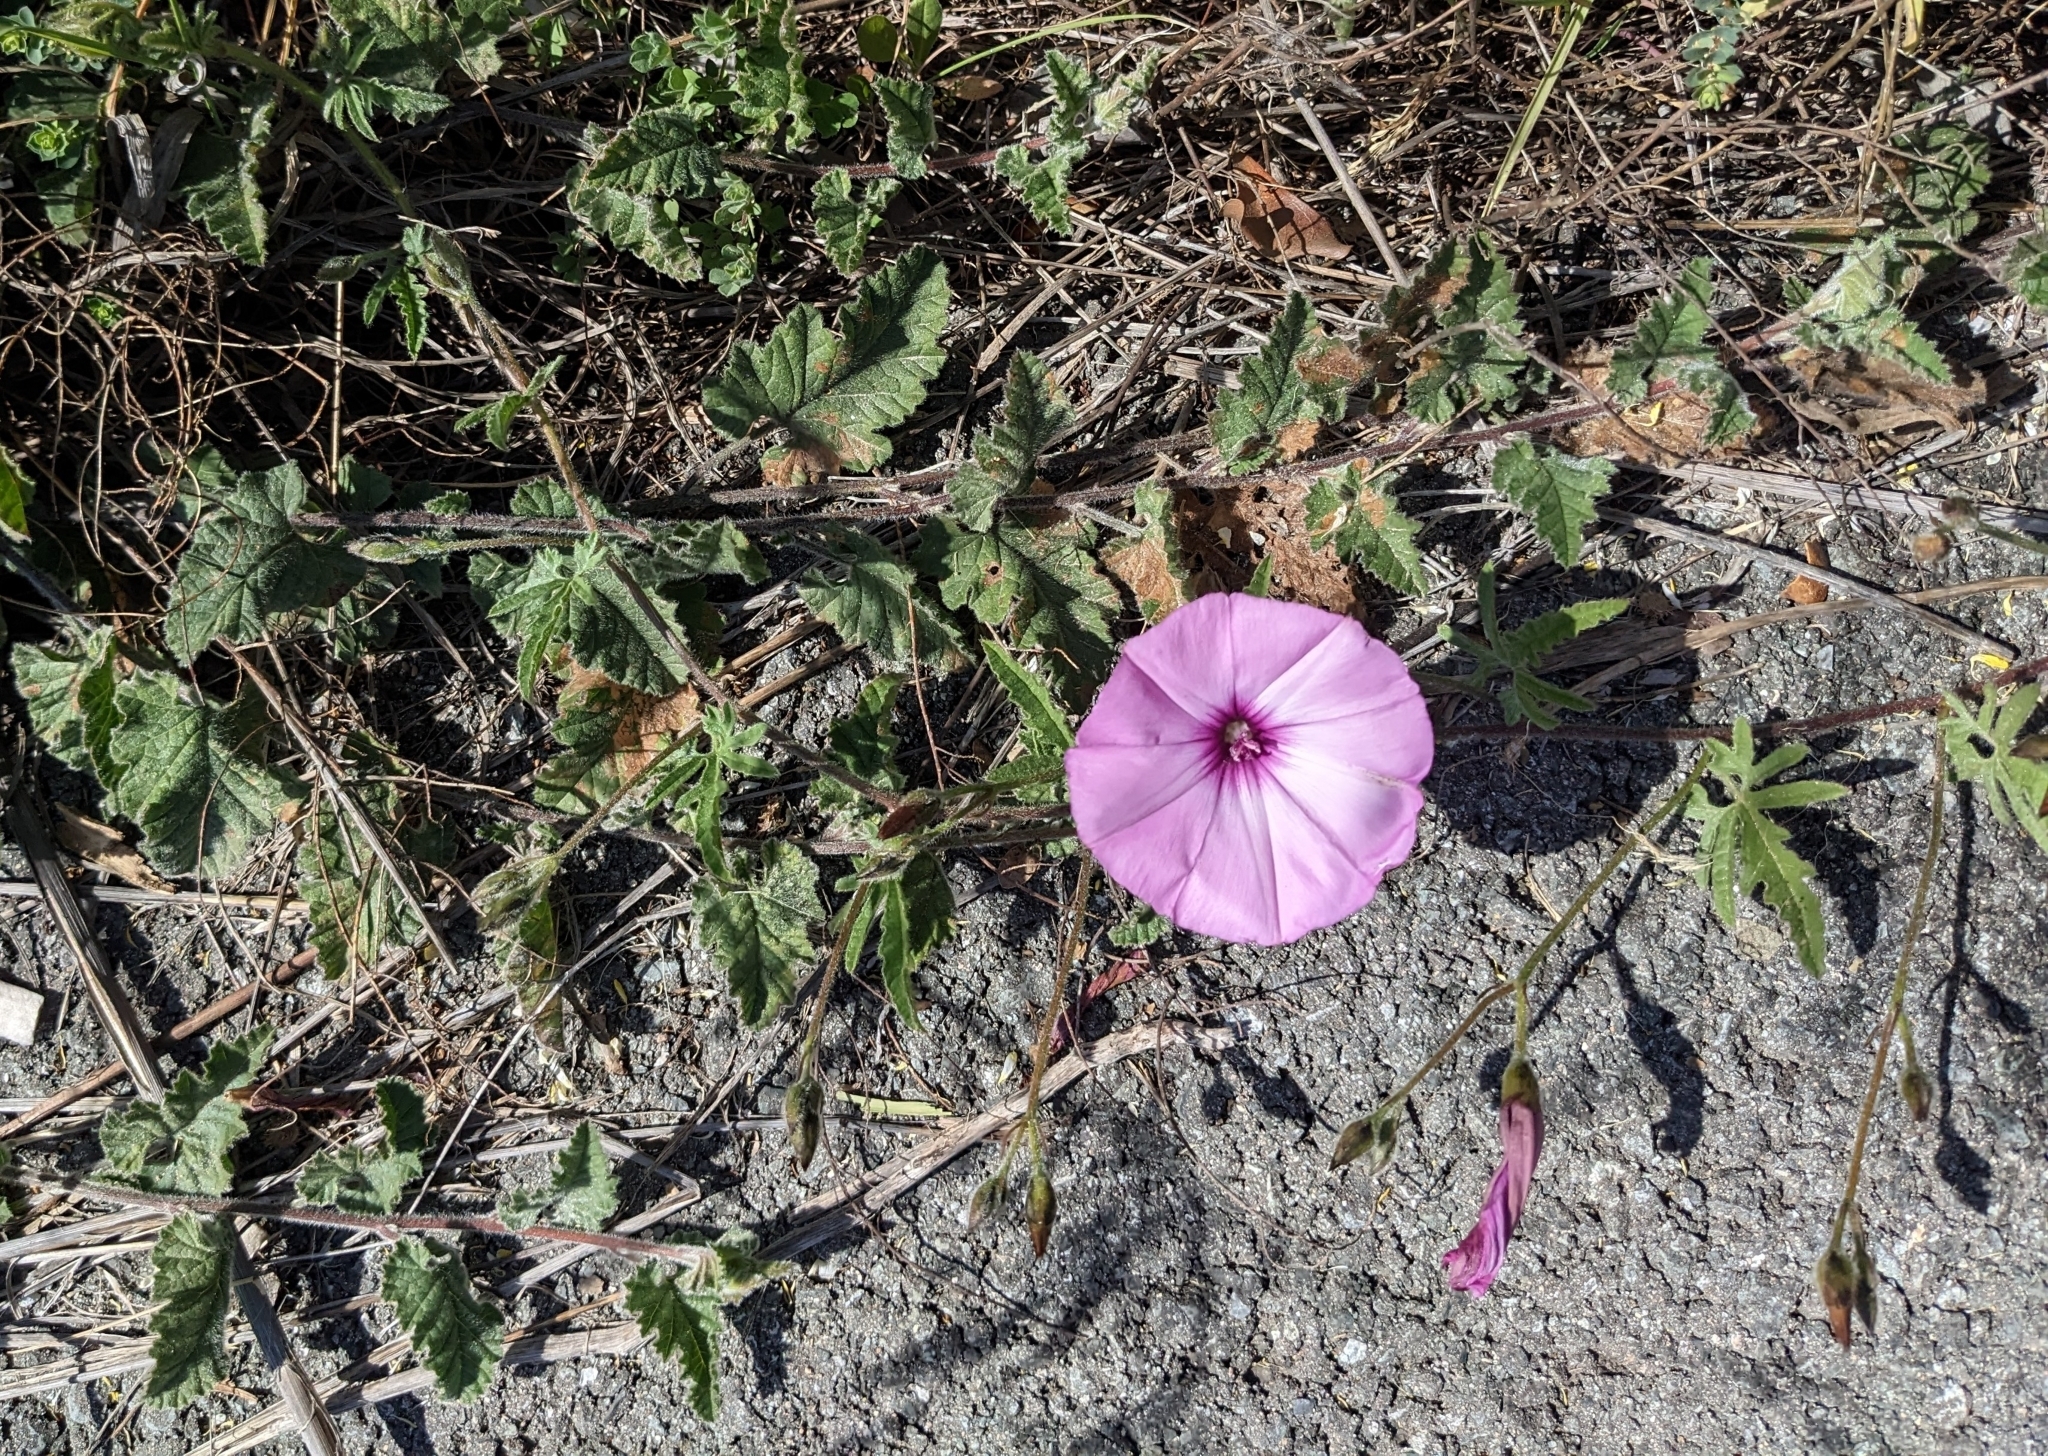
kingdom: Plantae
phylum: Tracheophyta
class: Magnoliopsida
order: Solanales
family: Convolvulaceae
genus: Convolvulus
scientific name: Convolvulus althaeoides
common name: Mallow bindweed
